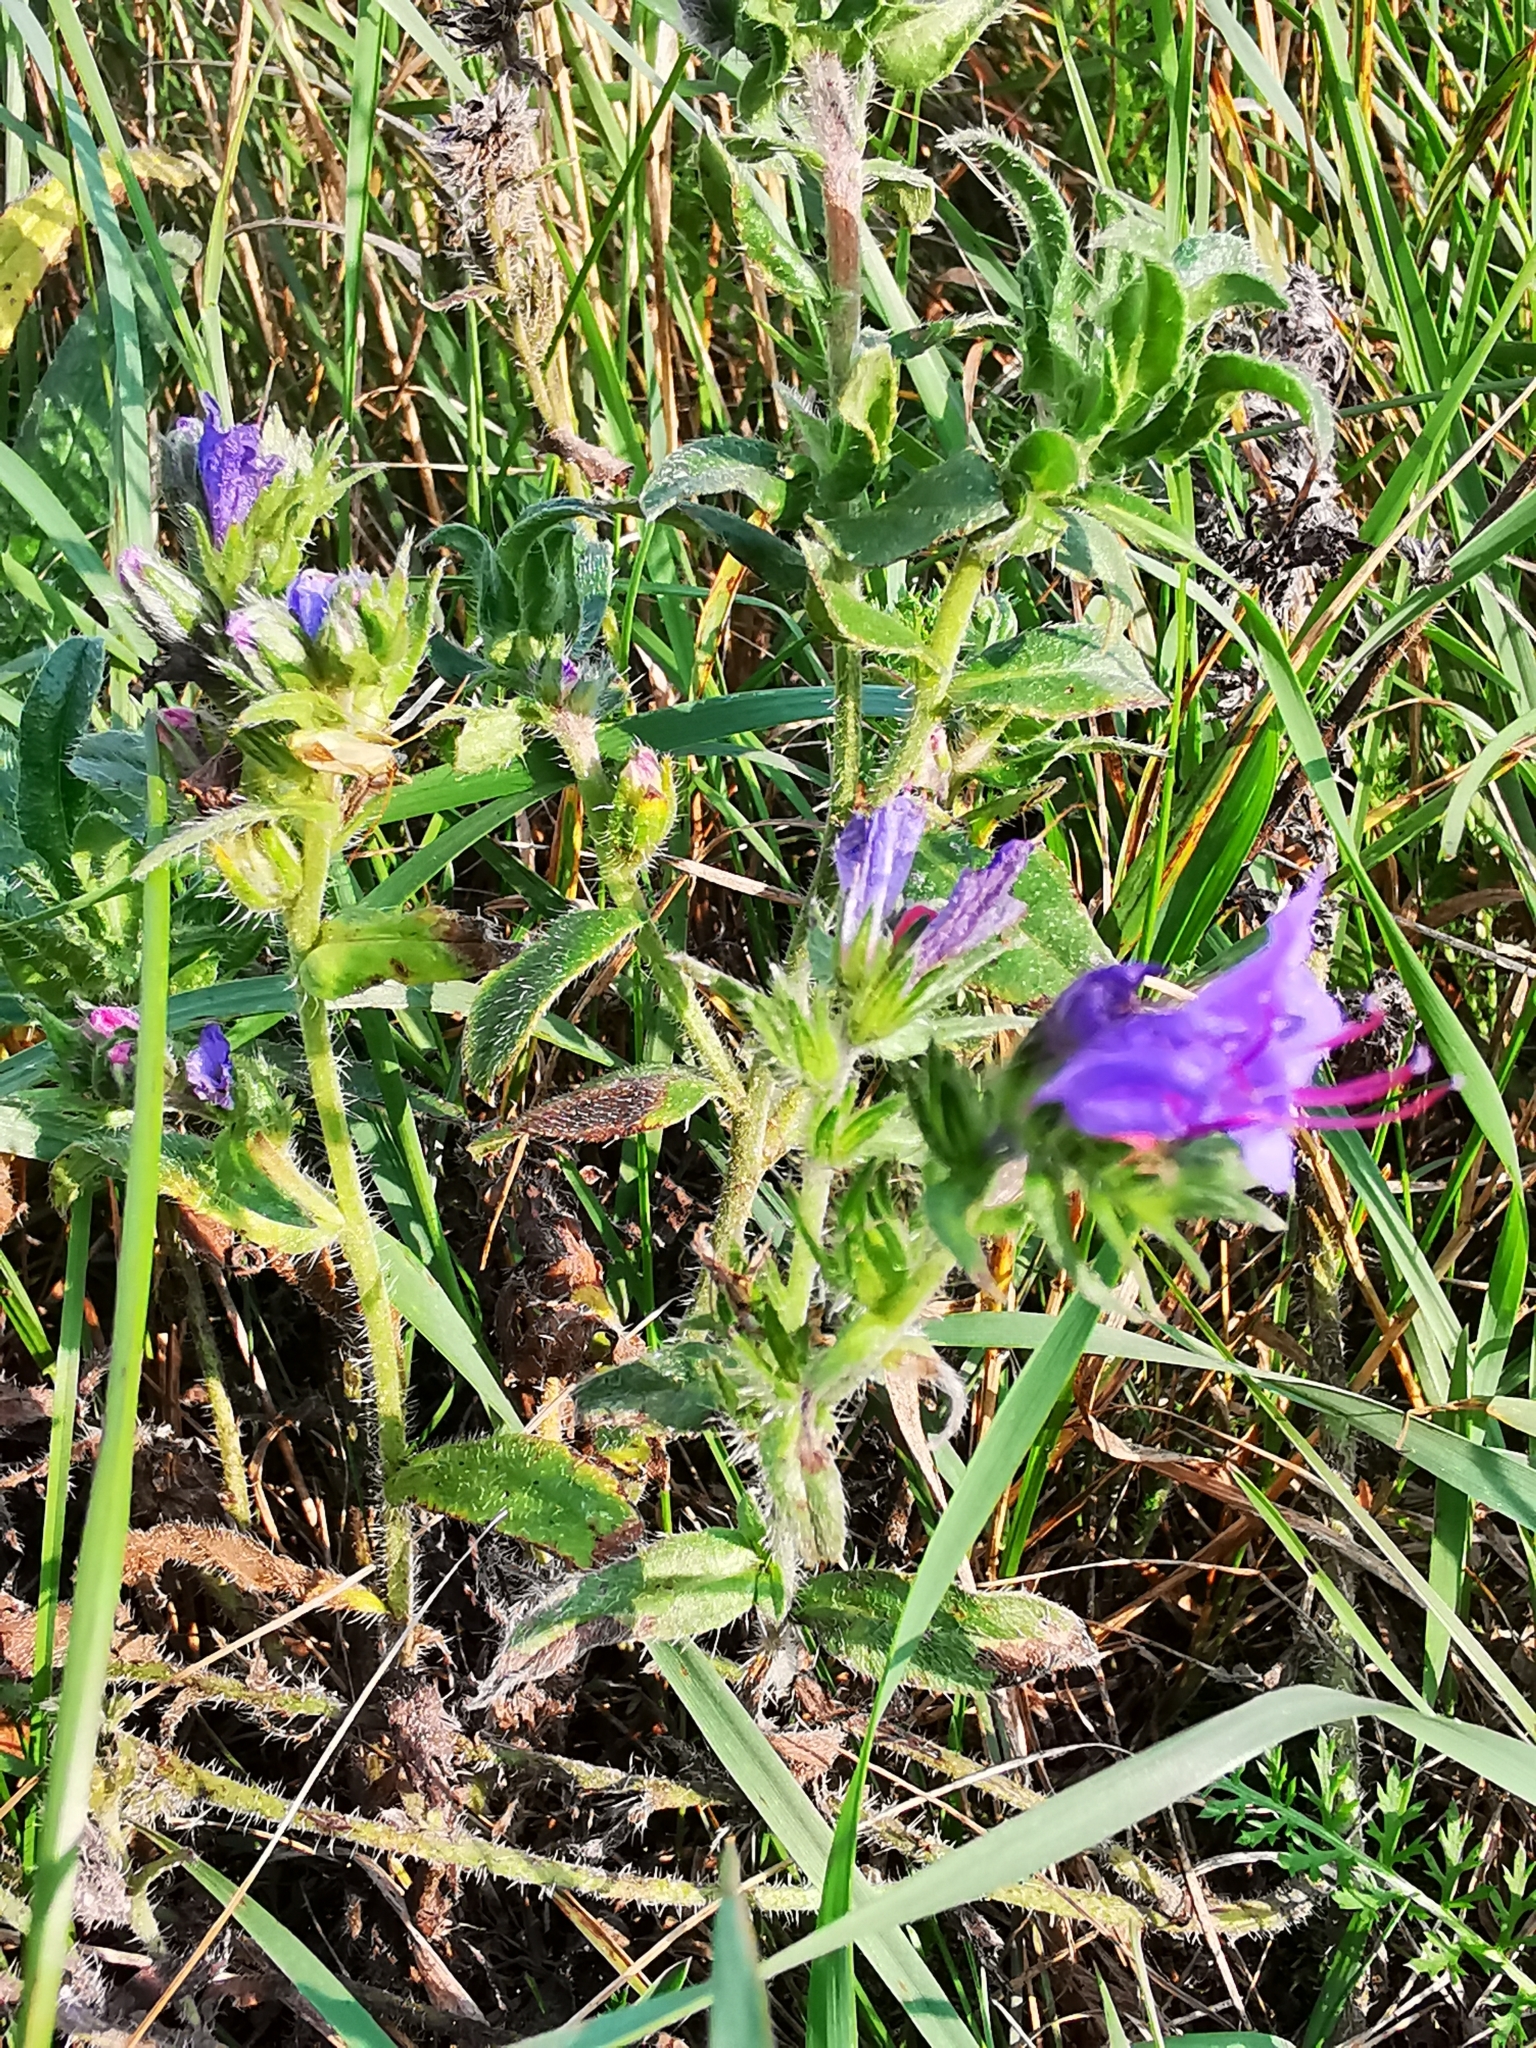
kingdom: Plantae
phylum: Tracheophyta
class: Magnoliopsida
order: Boraginales
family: Boraginaceae
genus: Echium
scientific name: Echium vulgare
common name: Common viper's bugloss
